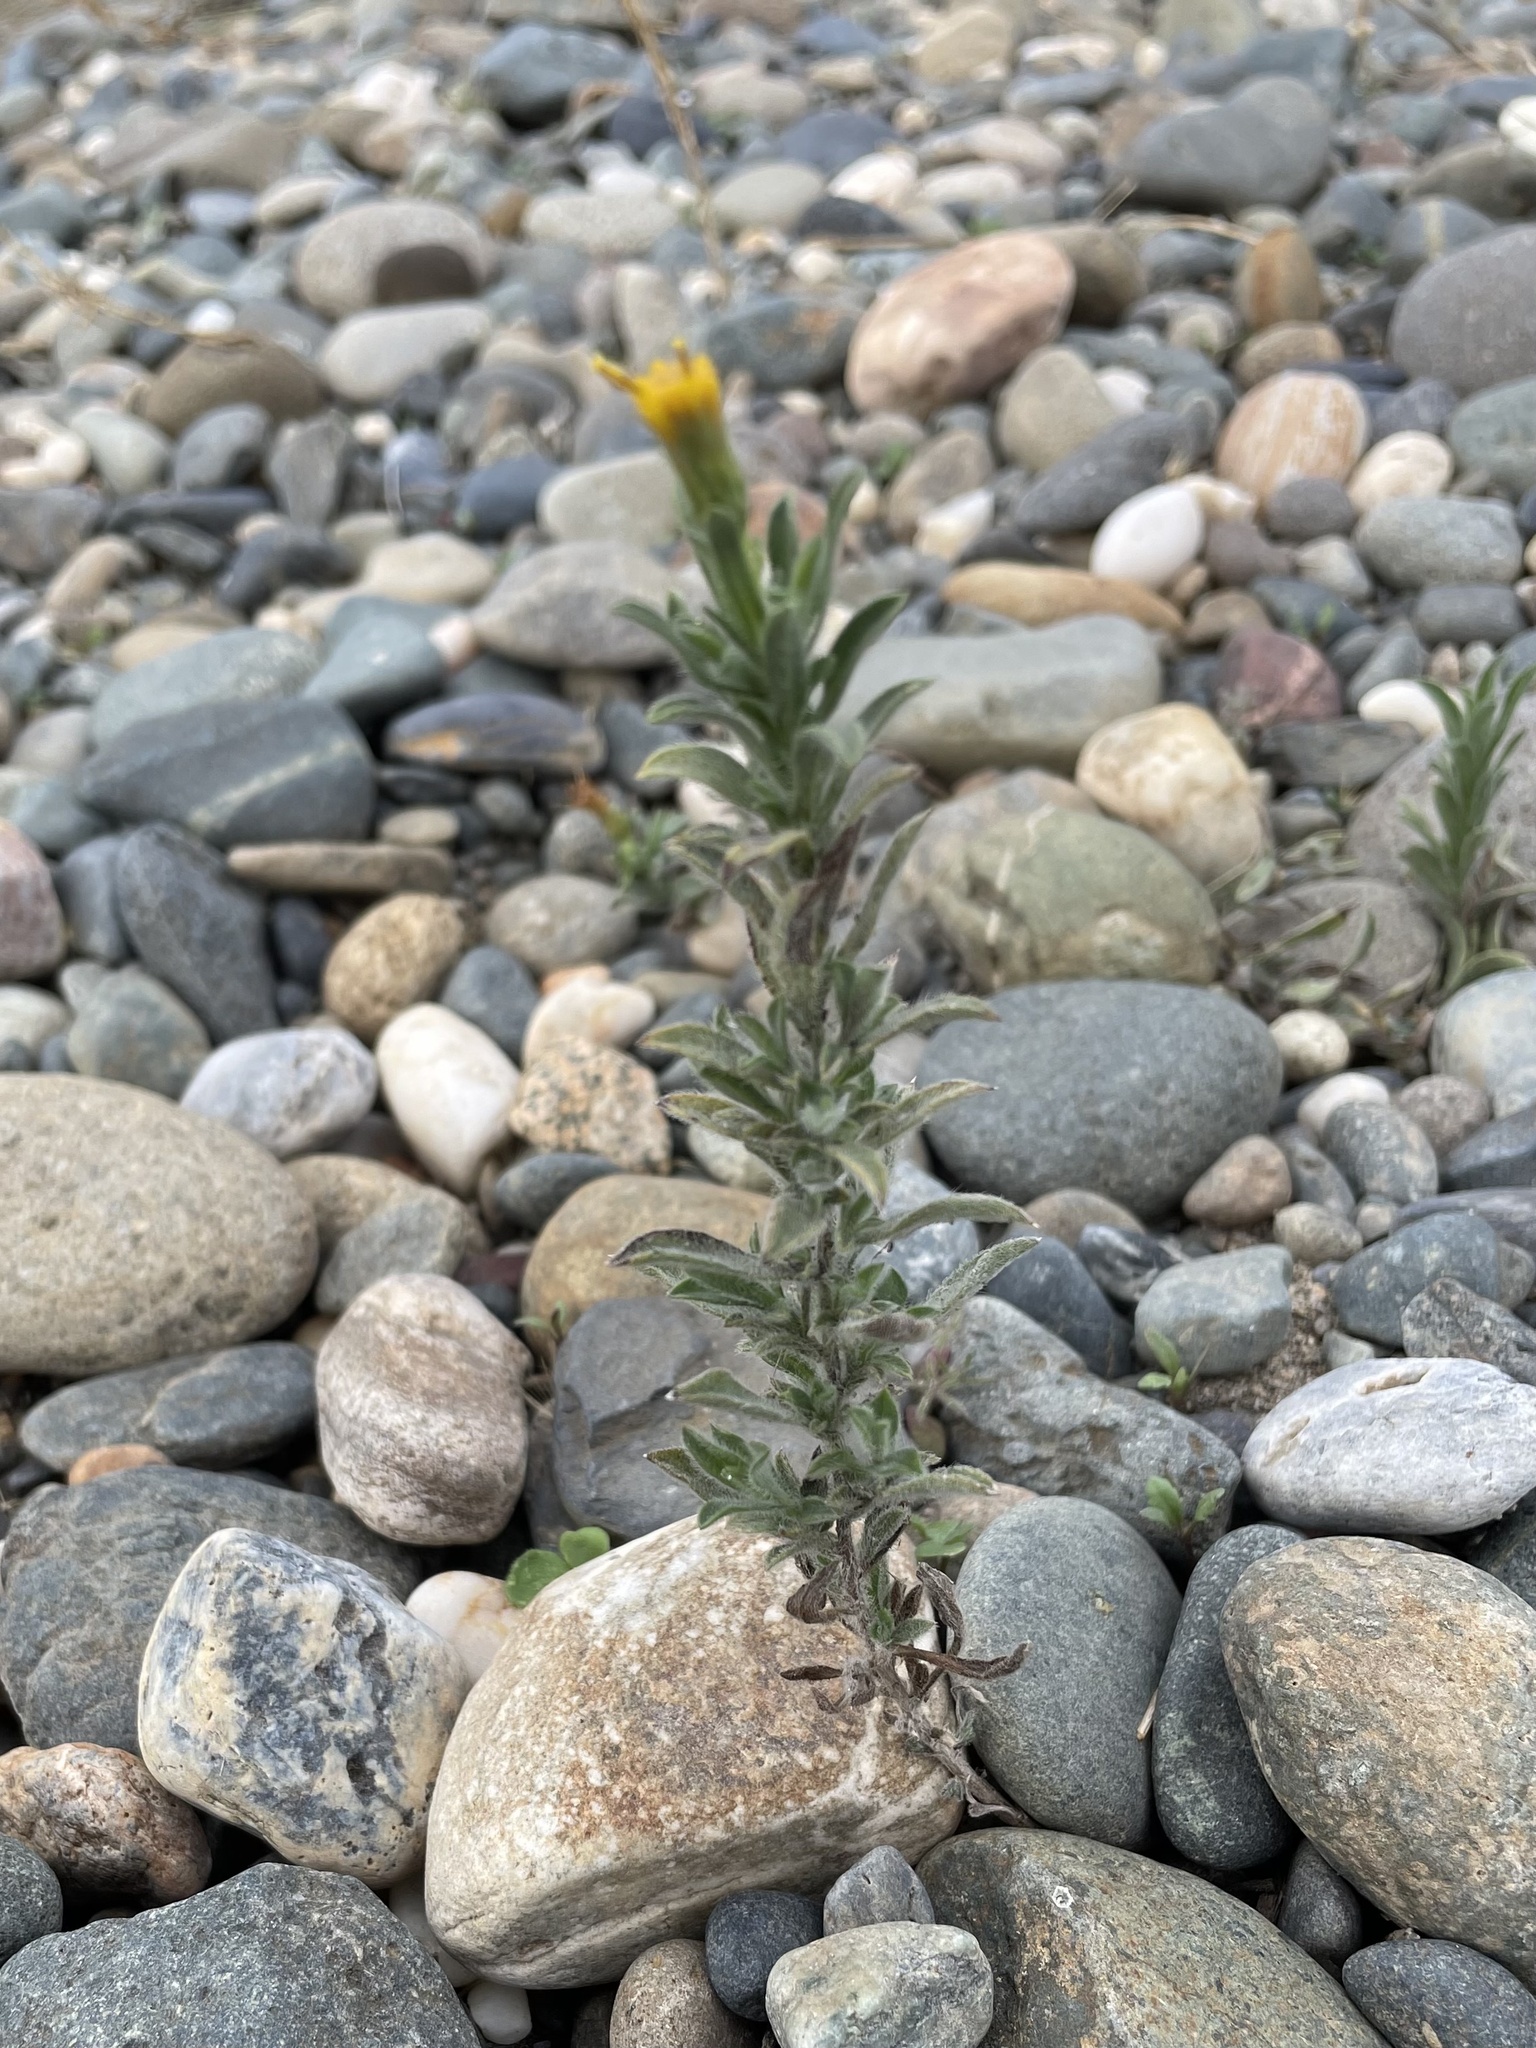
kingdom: Plantae
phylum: Tracheophyta
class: Magnoliopsida
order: Asterales
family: Asteraceae
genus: Heterotheca
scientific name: Heterotheca oregona
